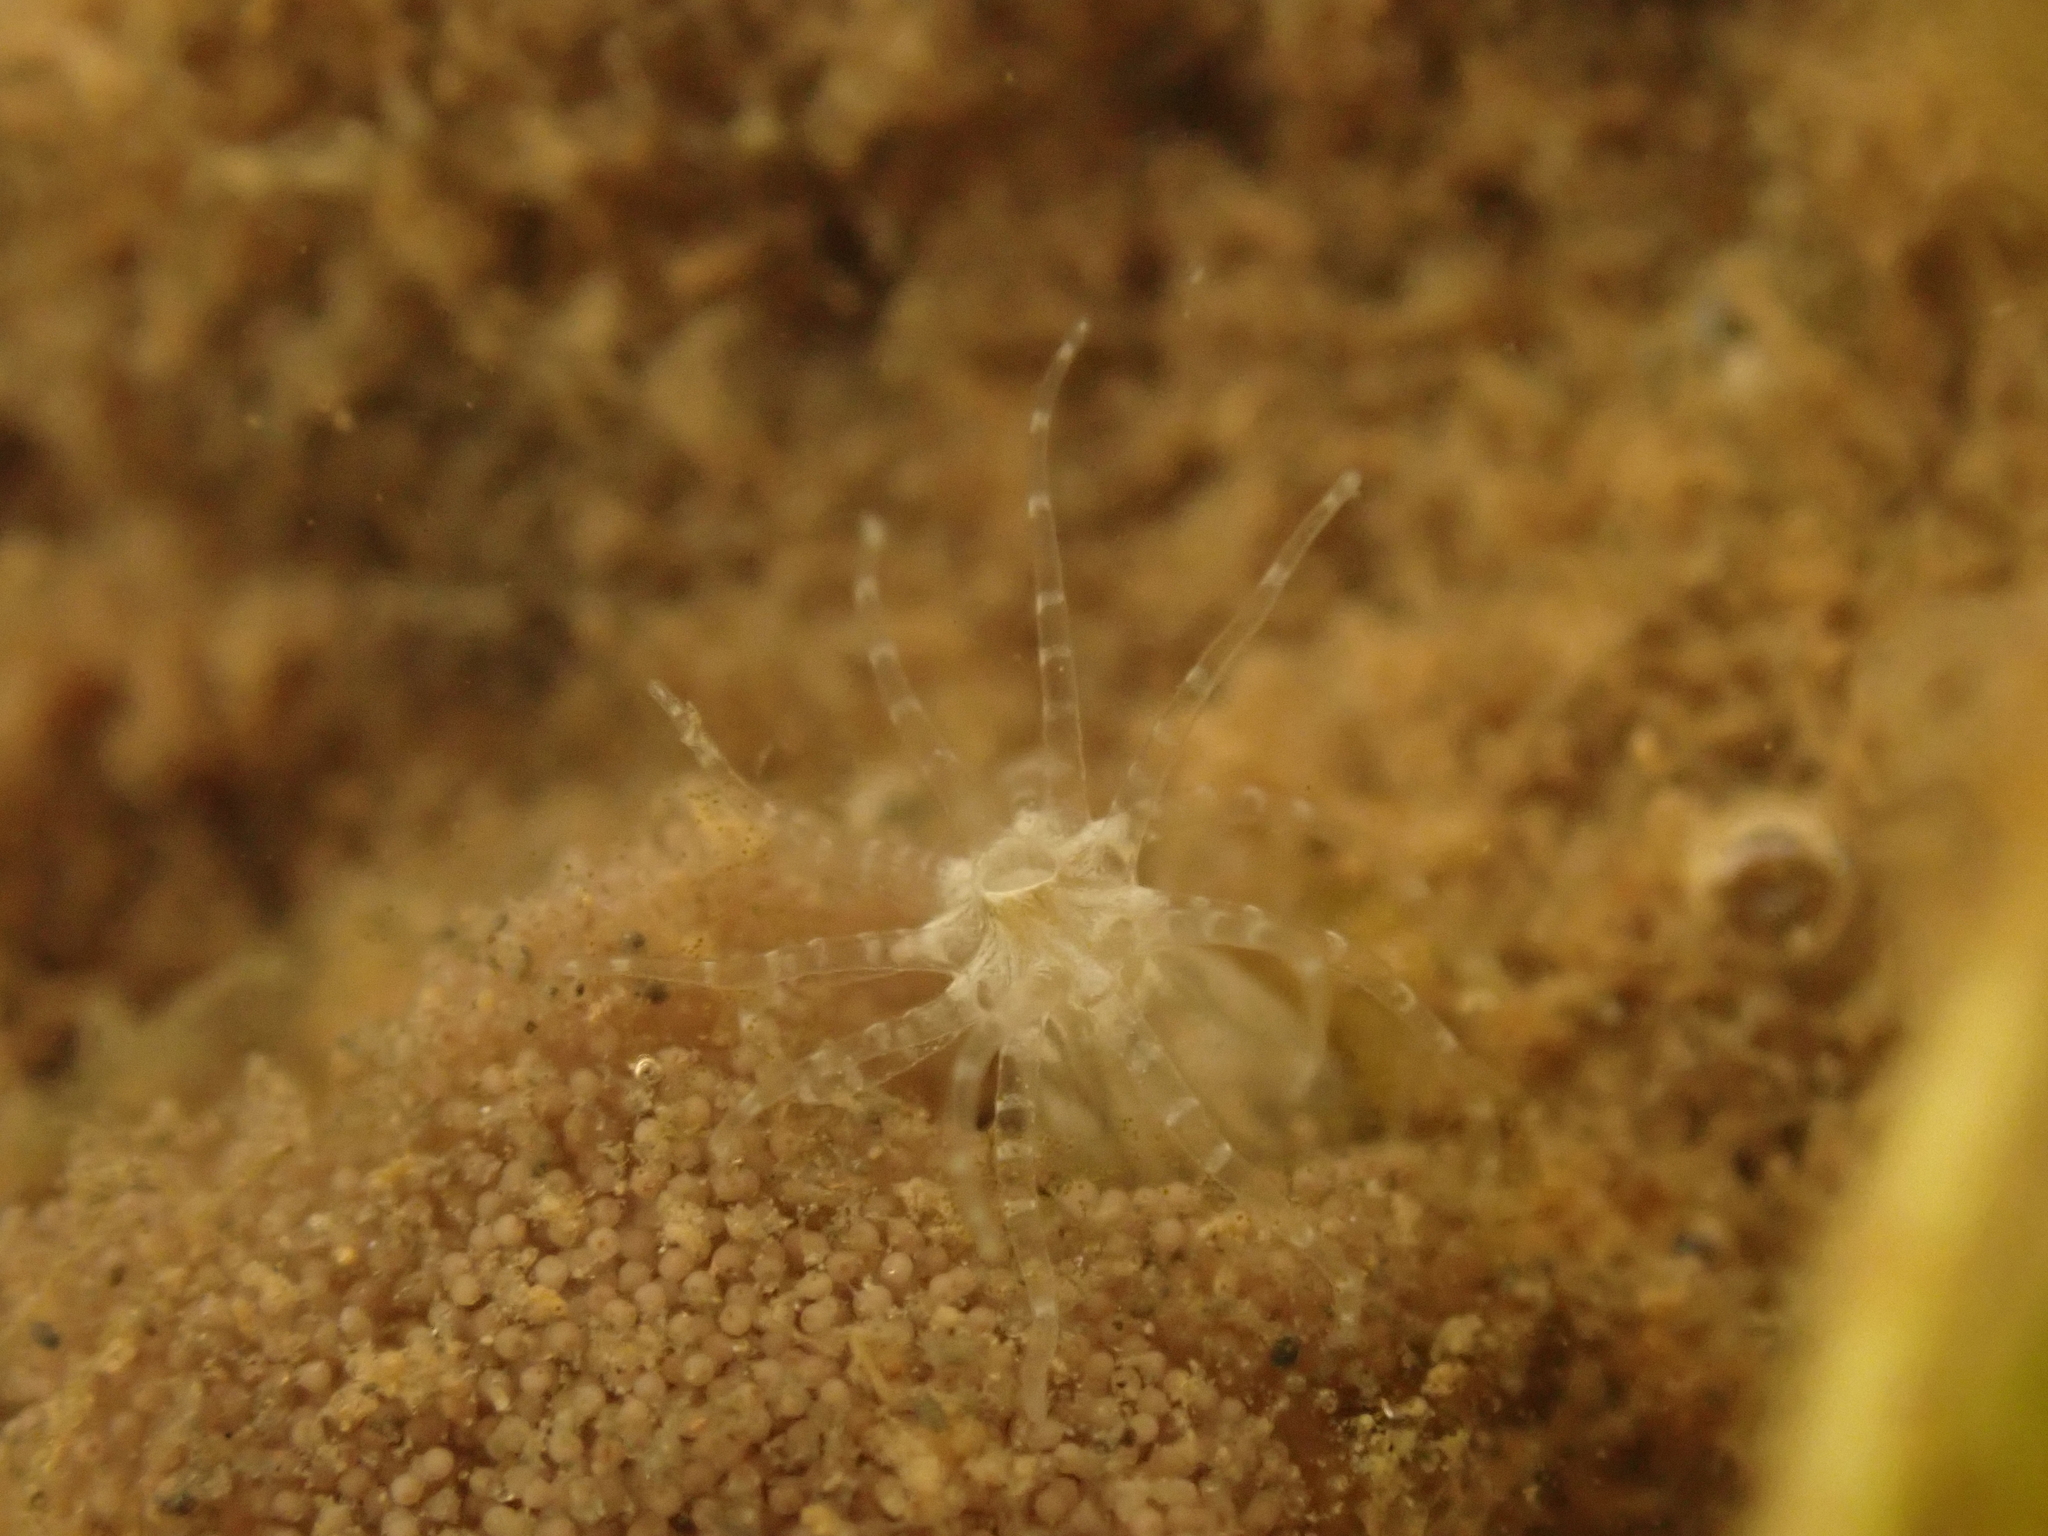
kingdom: Animalia
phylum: Cnidaria
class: Anthozoa
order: Actiniaria
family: Edwardsiidae
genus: Nematostella
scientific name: Nematostella vectensis
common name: Starlet sea anemone
